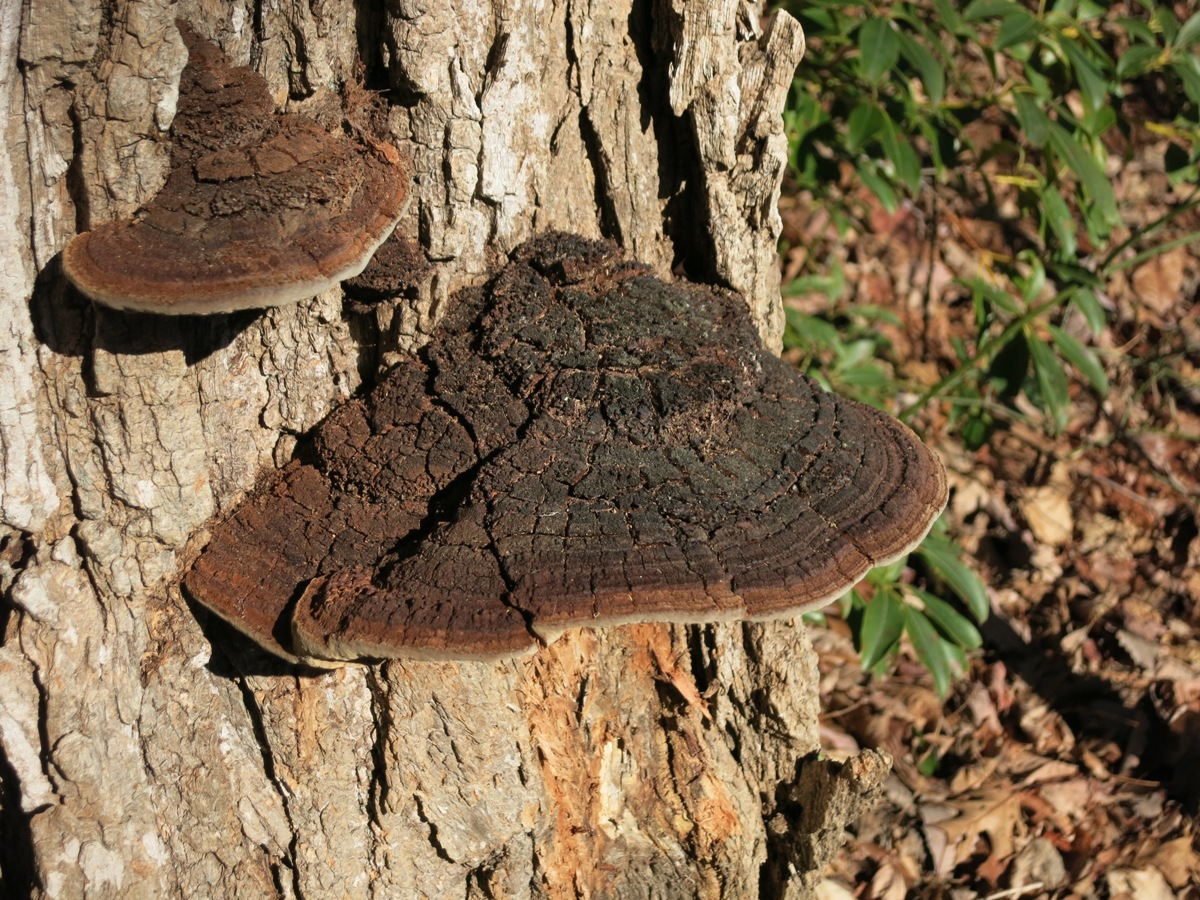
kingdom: Fungi
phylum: Basidiomycota
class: Agaricomycetes
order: Hymenochaetales
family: Hymenochaetaceae
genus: Phellinus
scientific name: Phellinus robiniae
